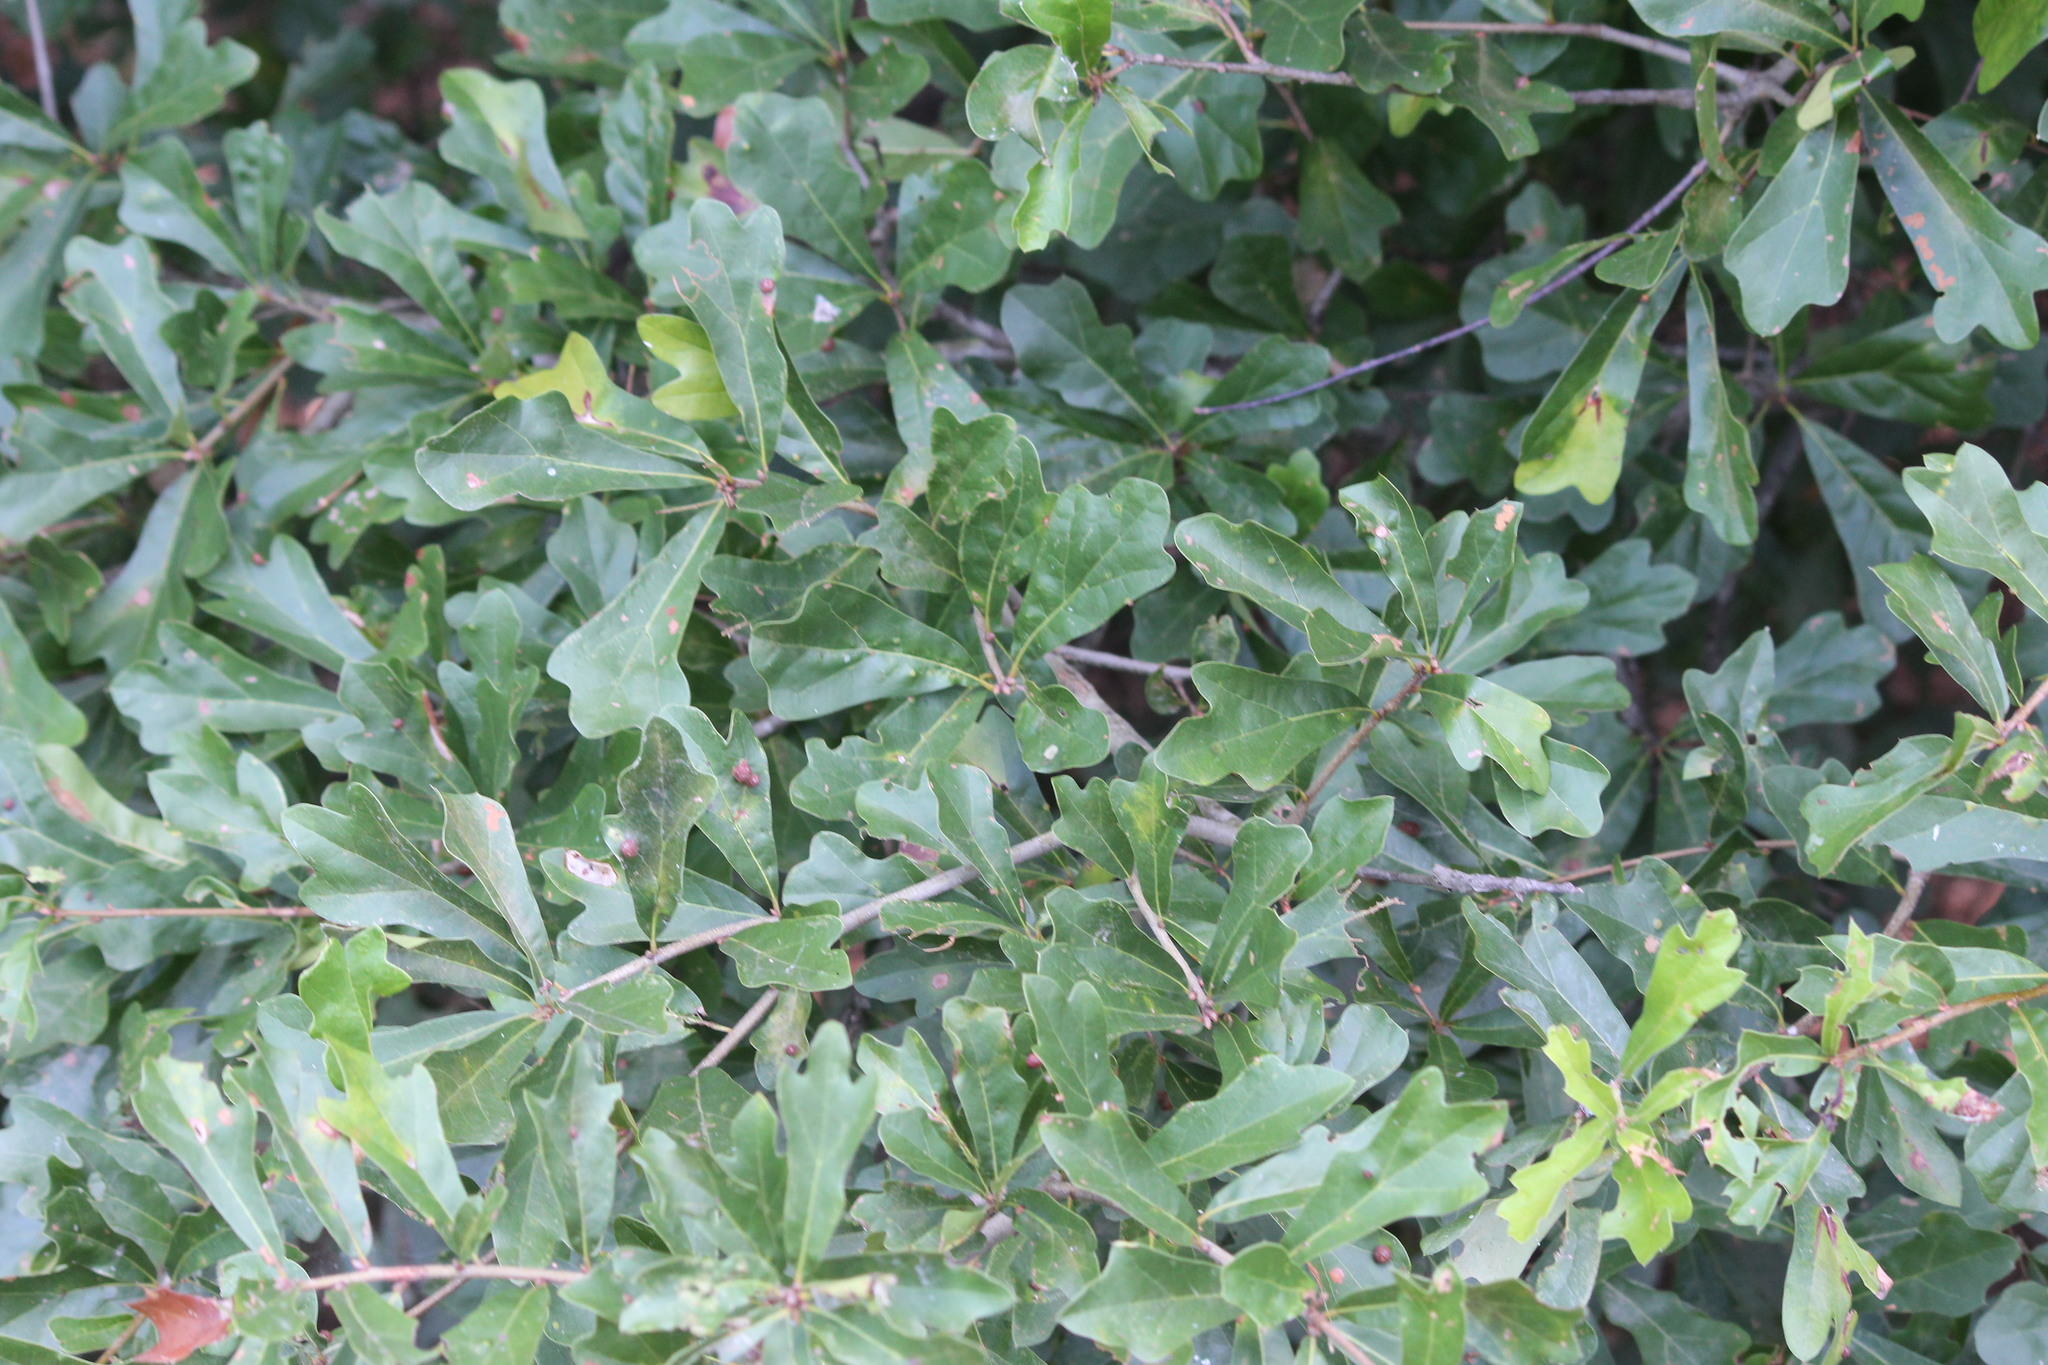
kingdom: Plantae
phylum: Tracheophyta
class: Magnoliopsida
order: Fagales
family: Fagaceae
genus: Quercus
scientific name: Quercus nigra
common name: Water oak
